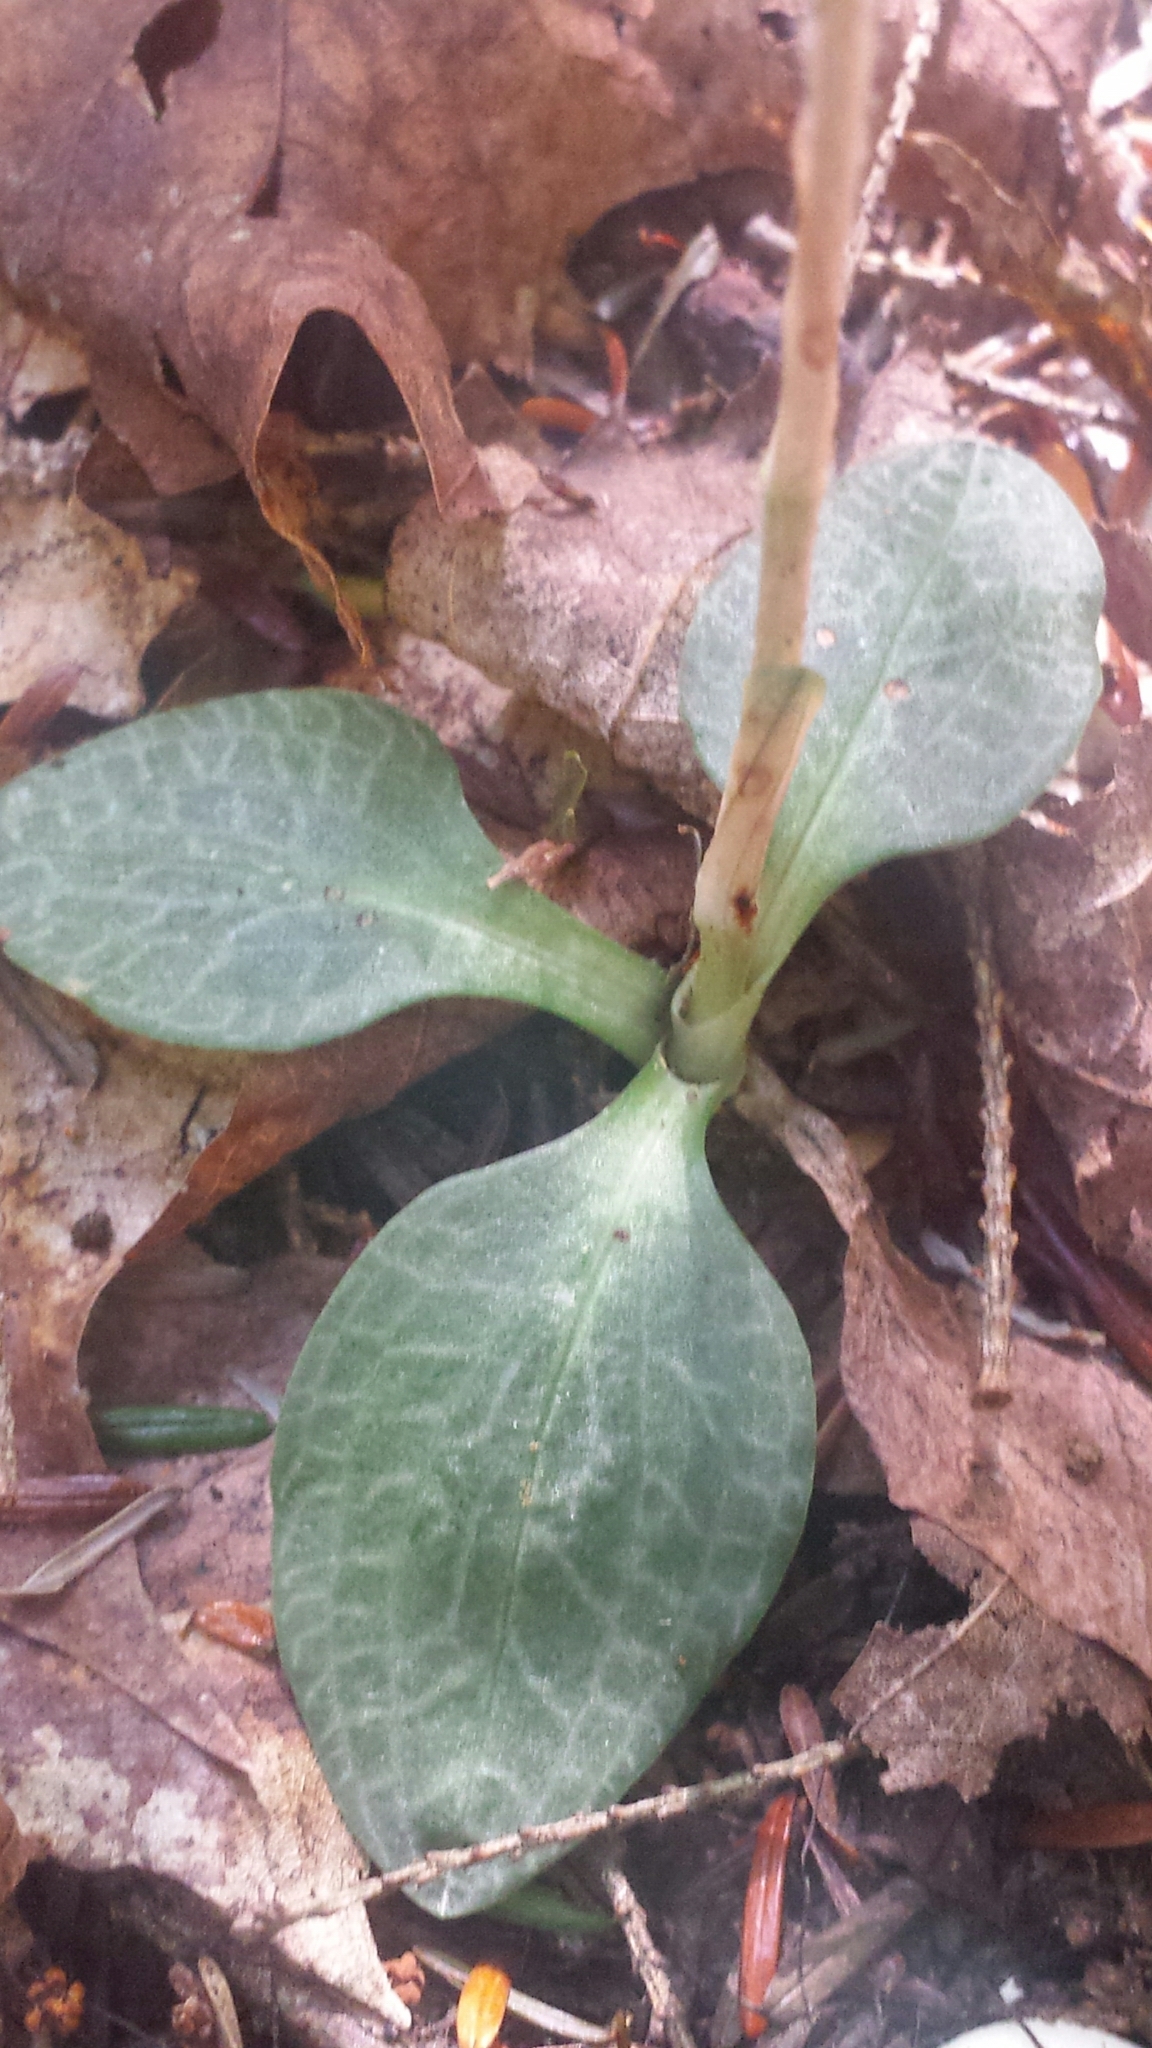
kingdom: Plantae
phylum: Tracheophyta
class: Liliopsida
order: Asparagales
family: Orchidaceae
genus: Goodyera
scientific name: Goodyera tesselata
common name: Checkered rattlesnake-plantain
